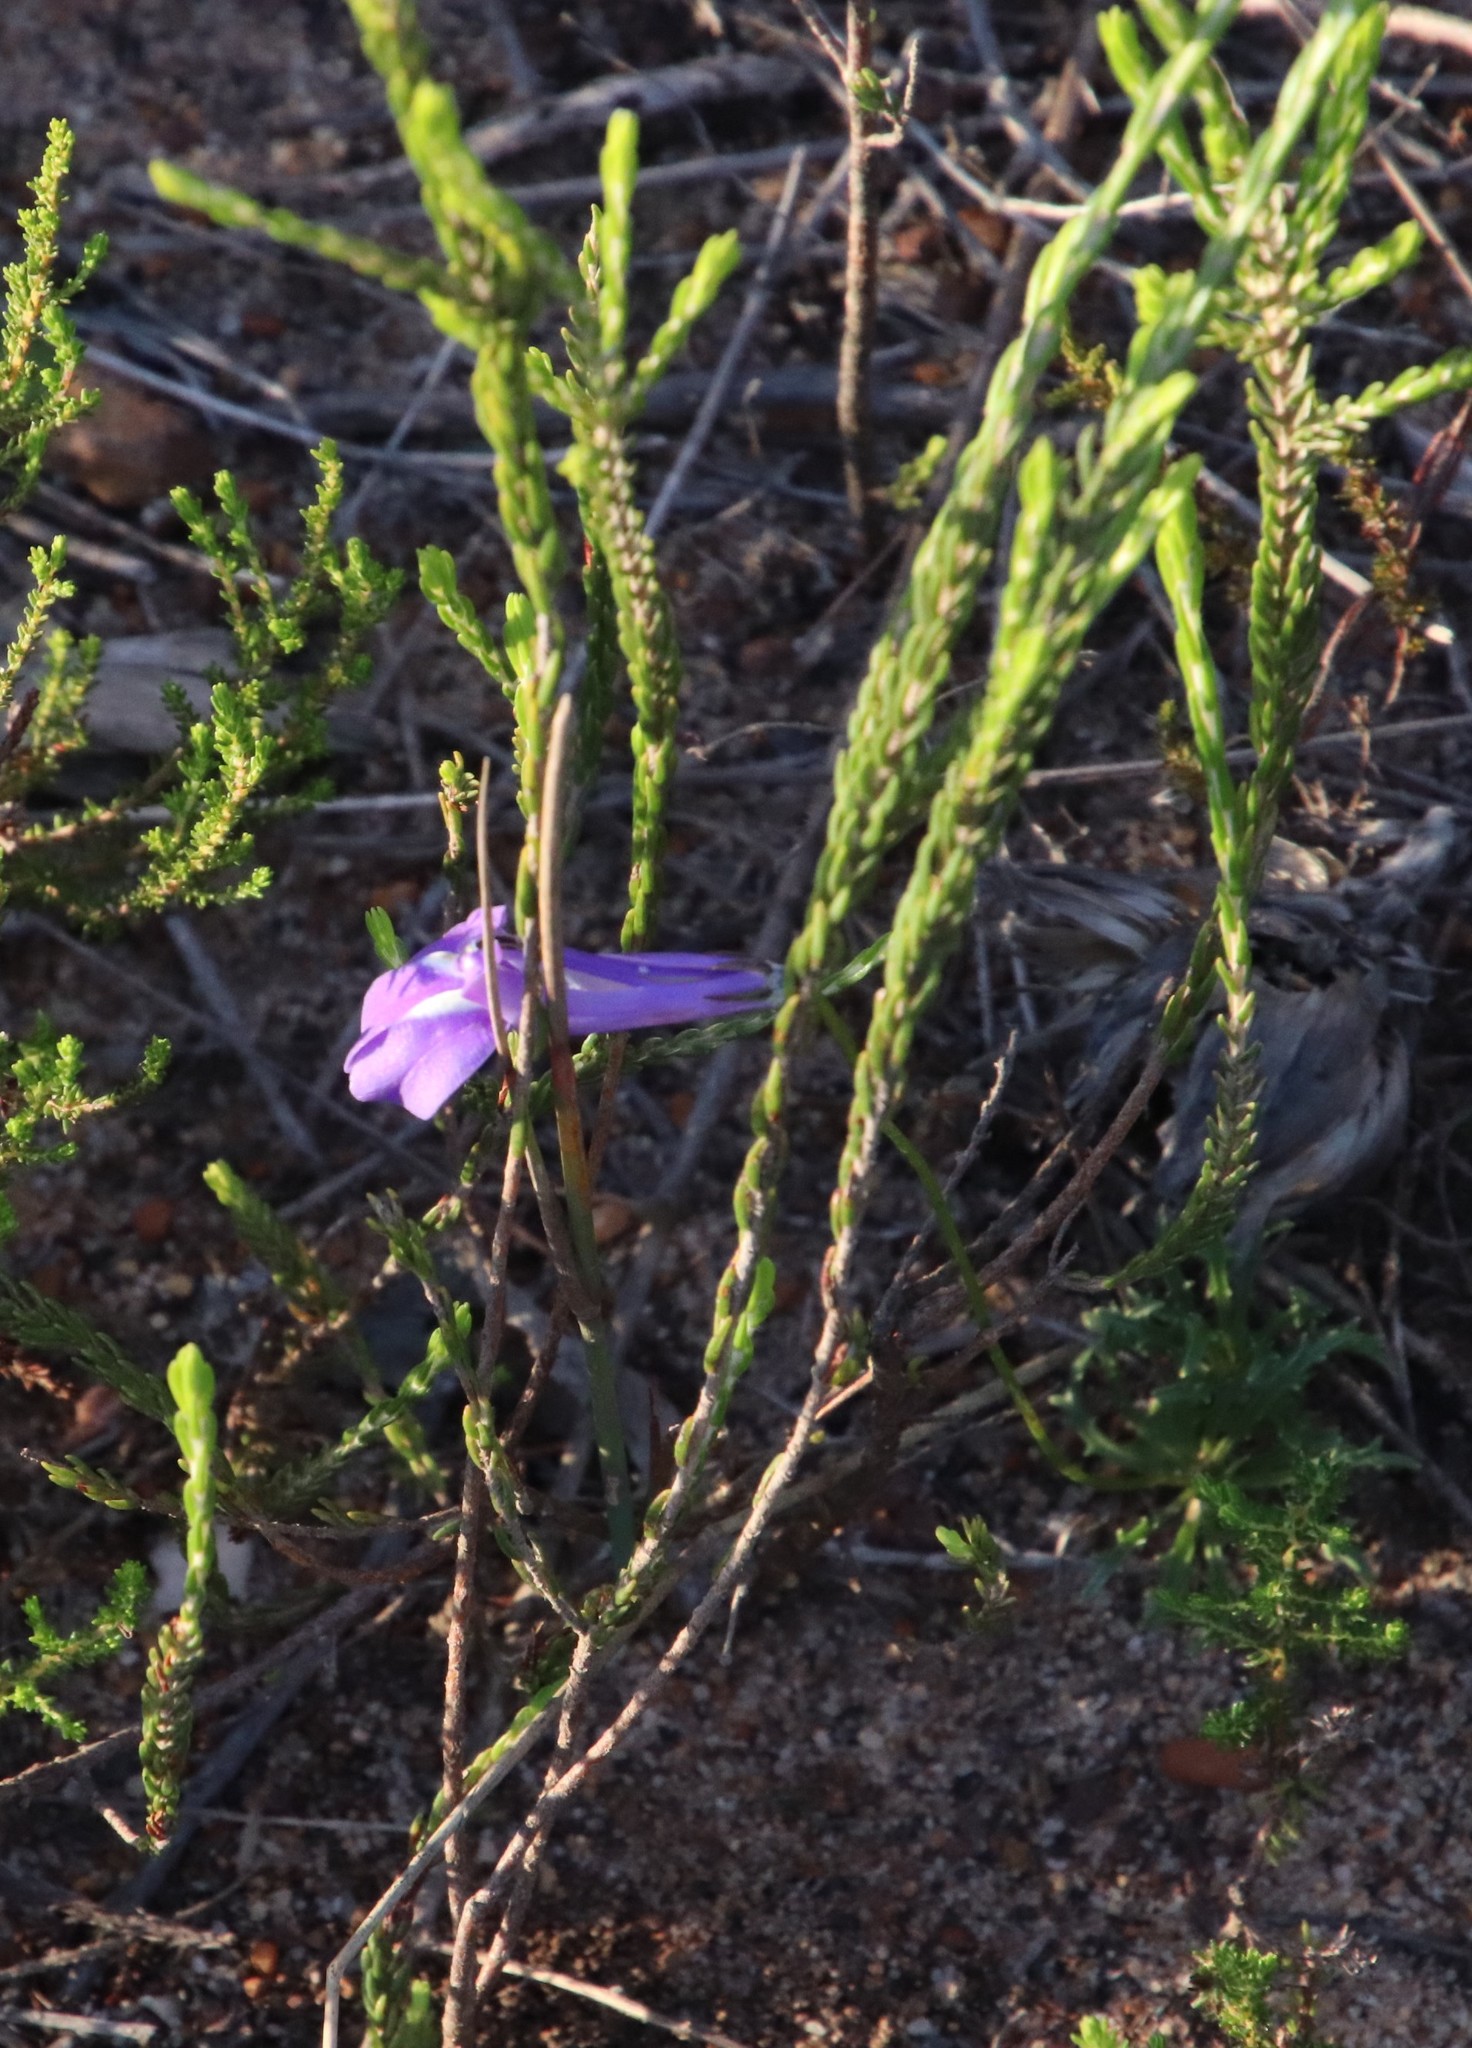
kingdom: Plantae
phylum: Tracheophyta
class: Magnoliopsida
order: Asterales
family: Campanulaceae
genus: Lobelia
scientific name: Lobelia coronopifolia
